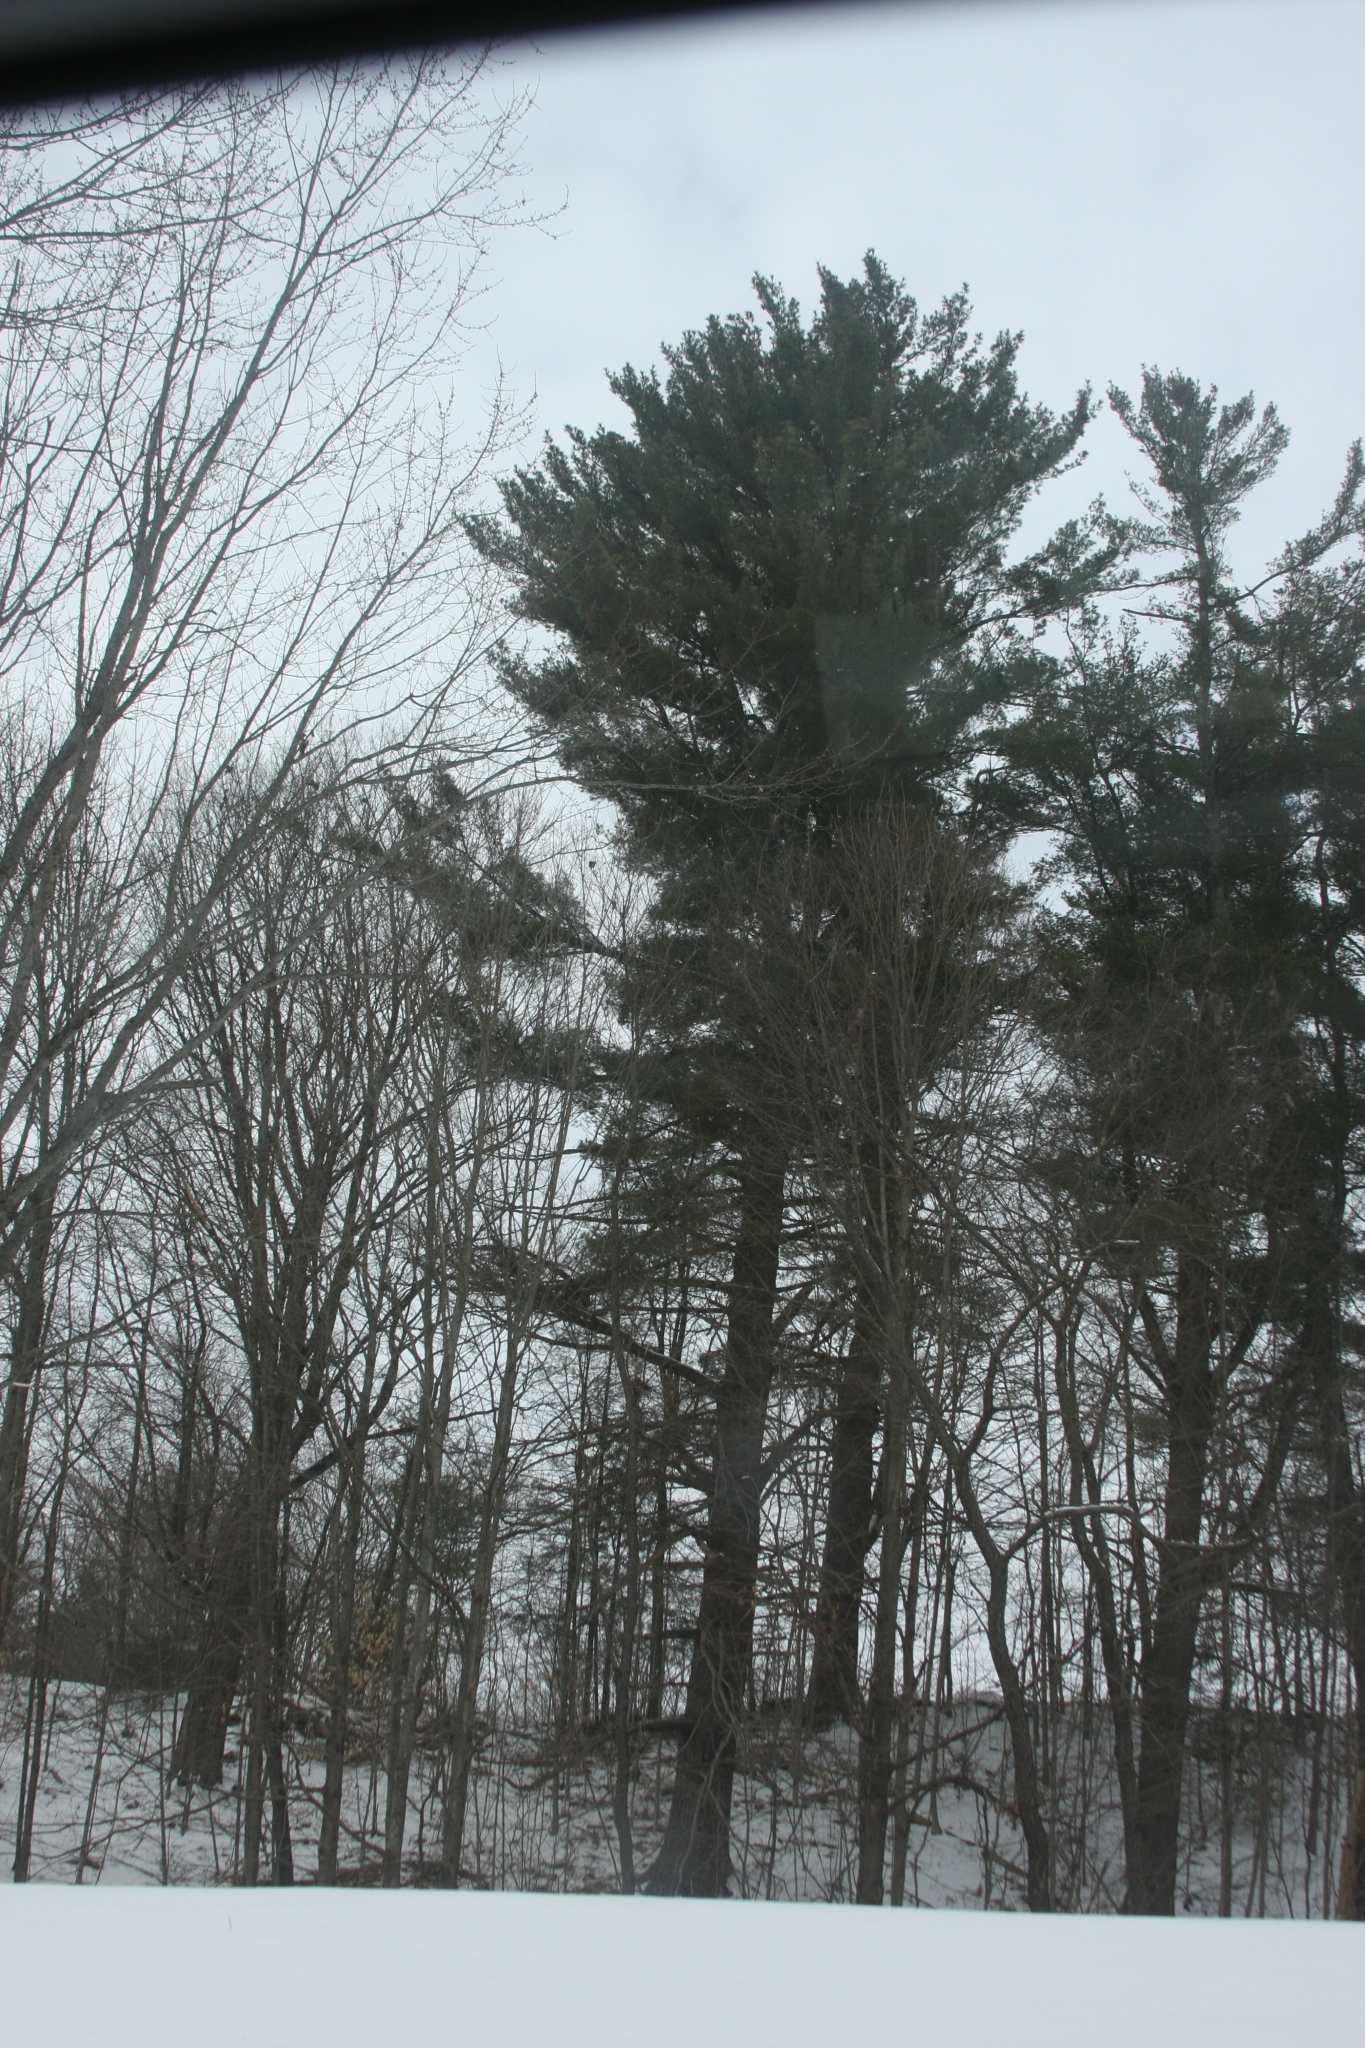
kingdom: Plantae
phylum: Tracheophyta
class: Pinopsida
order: Pinales
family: Pinaceae
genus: Pinus
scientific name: Pinus strobus
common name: Weymouth pine
